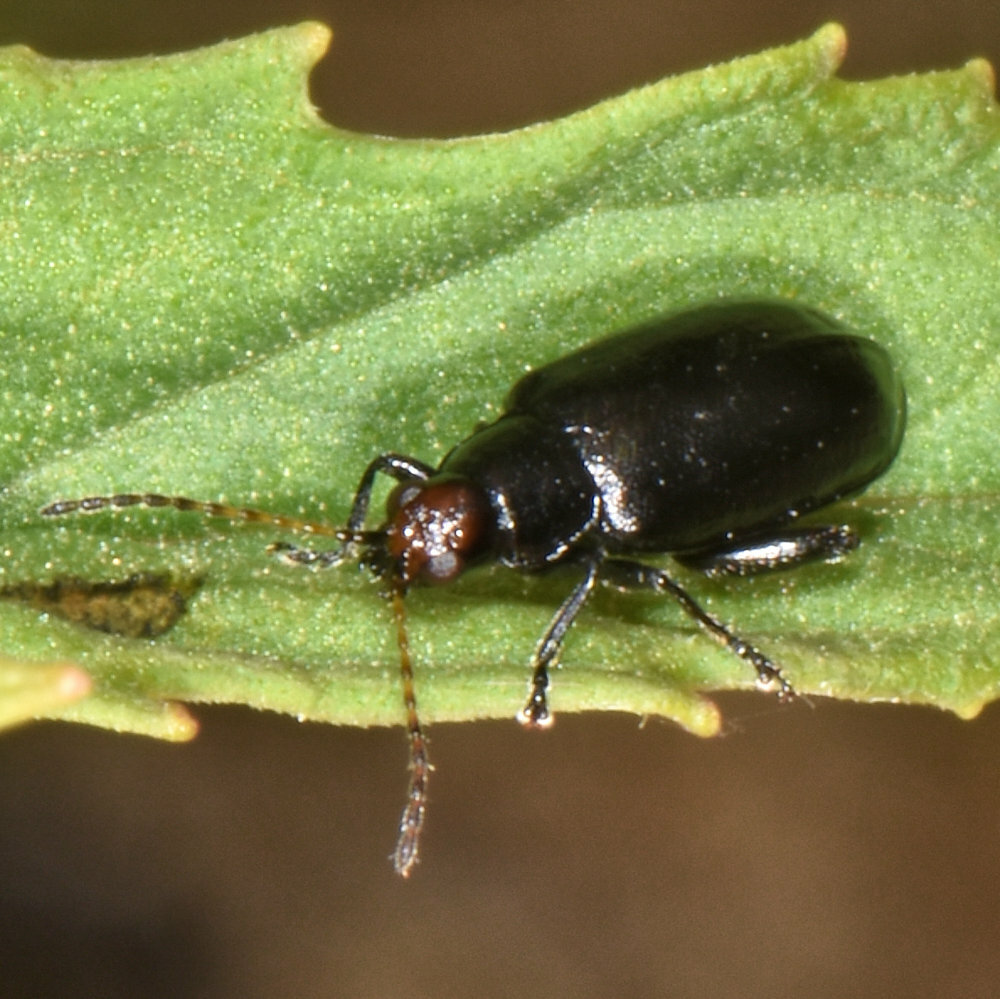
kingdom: Animalia
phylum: Arthropoda
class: Insecta
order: Coleoptera
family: Chrysomelidae
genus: Systena
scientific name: Systena frontalis
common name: Red-headed flea beetle
